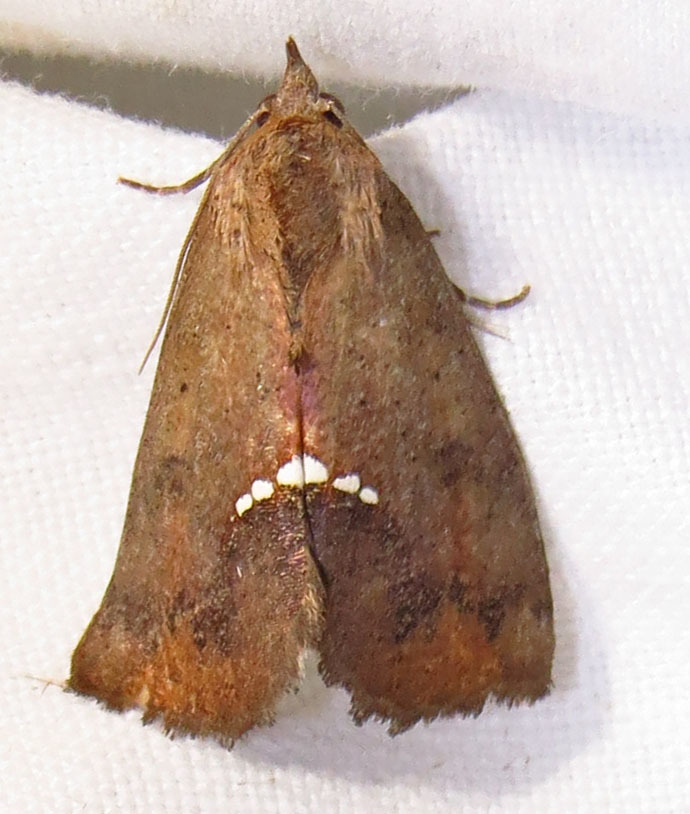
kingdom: Animalia
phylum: Arthropoda
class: Insecta
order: Lepidoptera
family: Erebidae
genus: Hypsoropha
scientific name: Hypsoropha hormos
